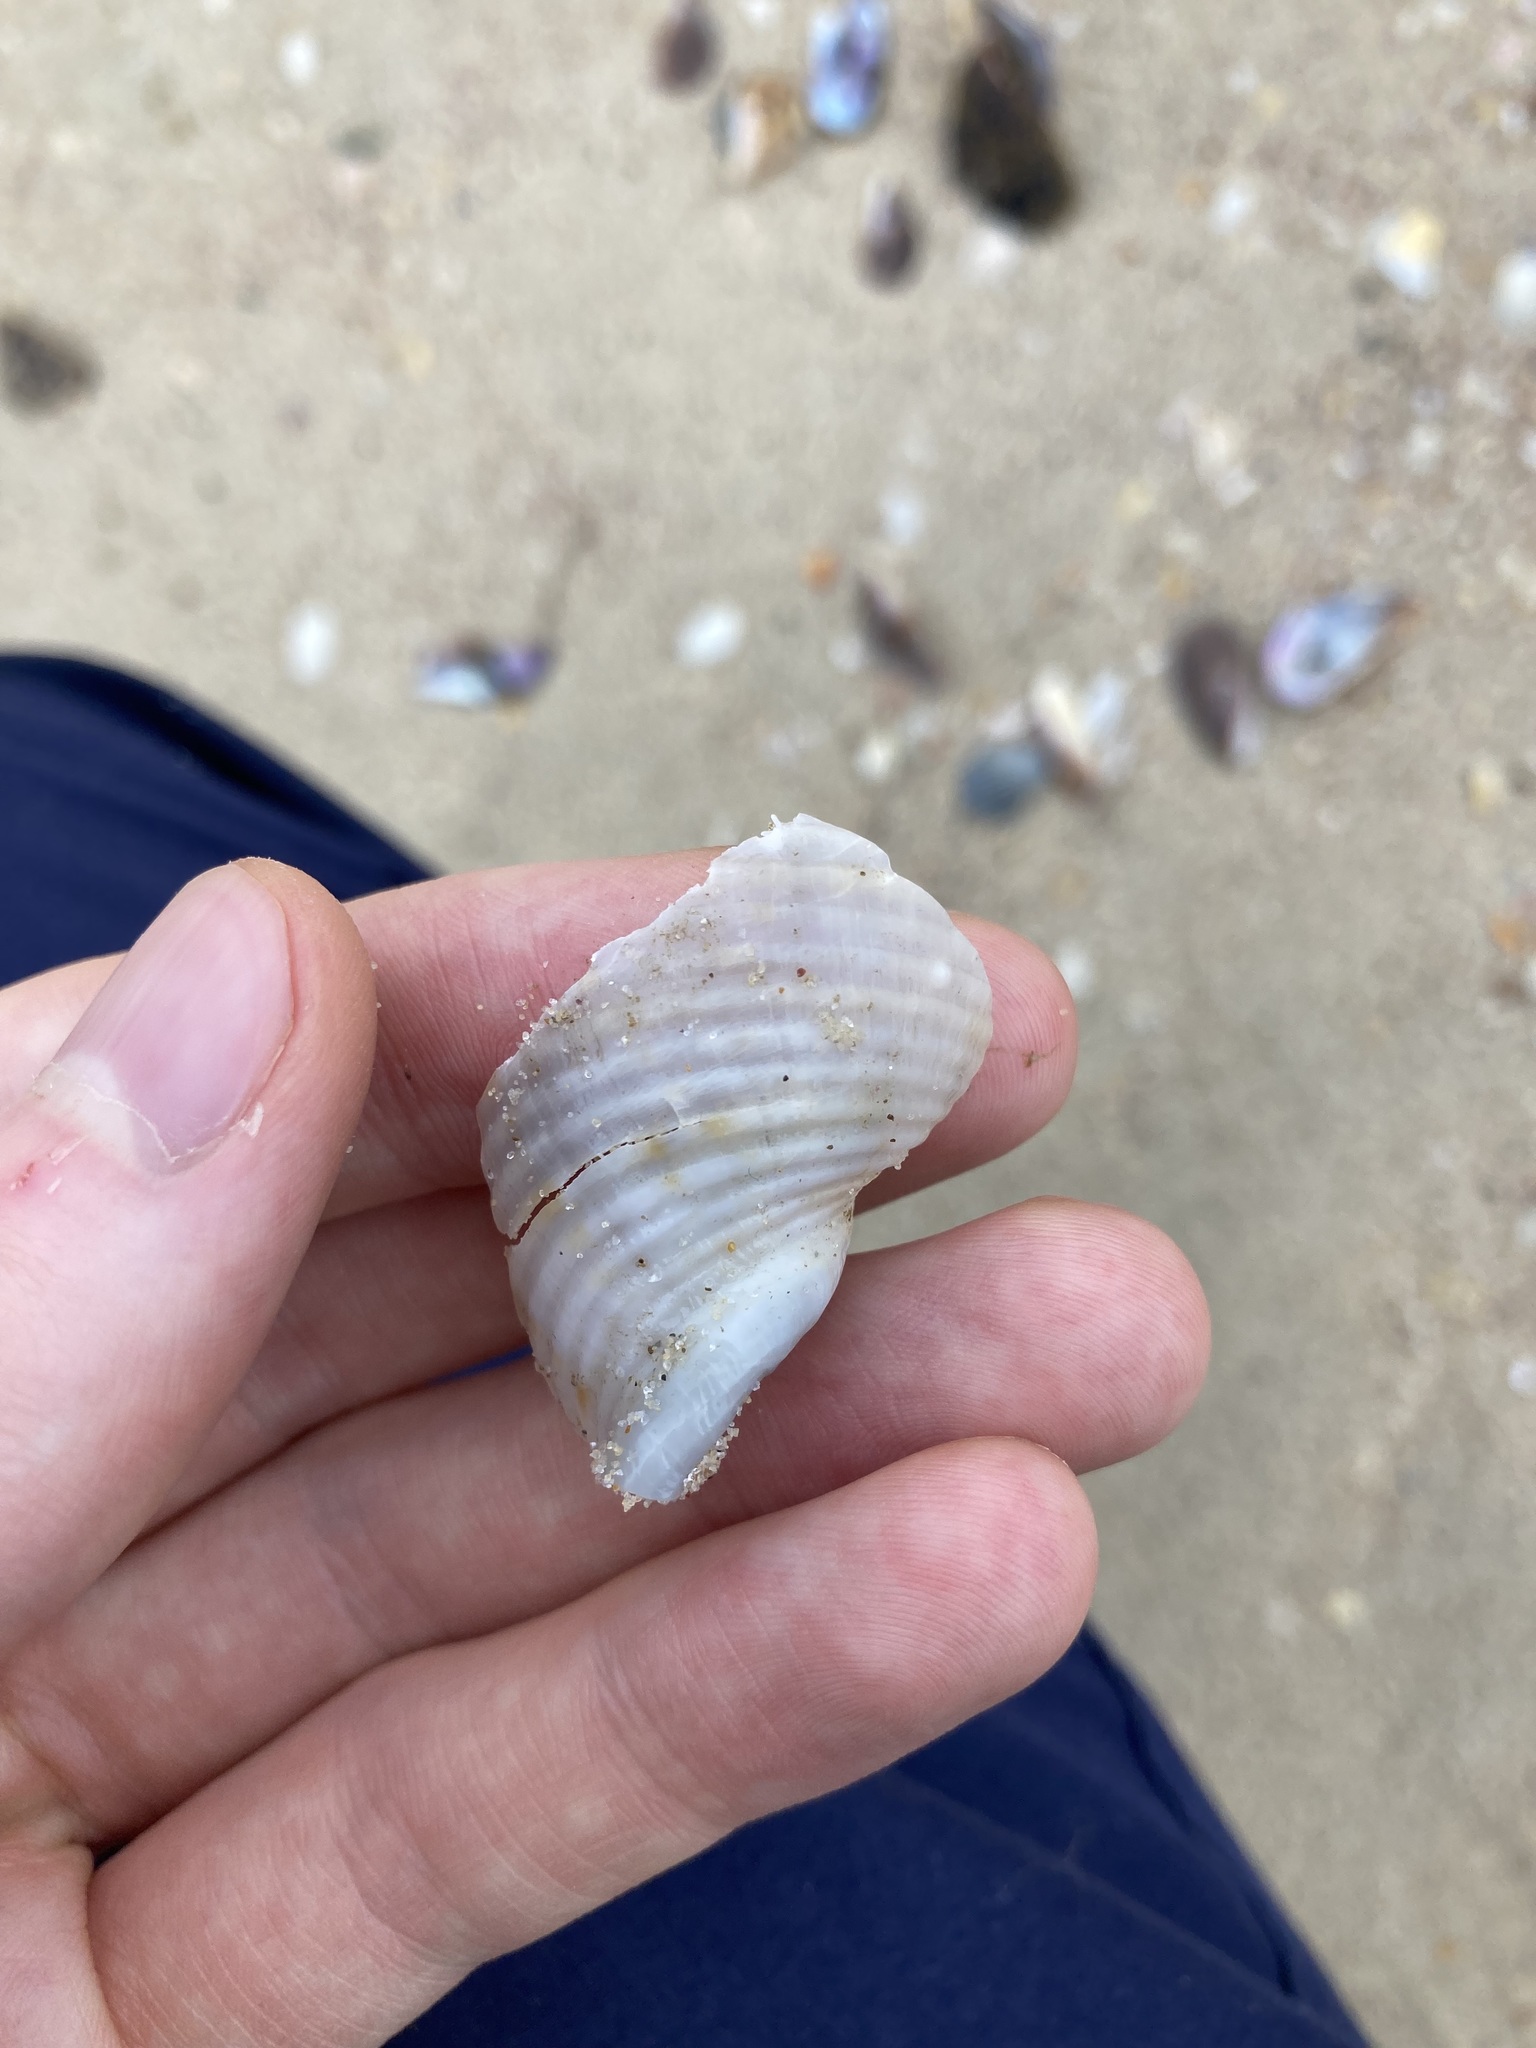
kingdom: Animalia
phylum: Mollusca
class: Gastropoda
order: Littorinimorpha
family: Tonnidae
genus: Tonna
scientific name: Tonna tankervillii
